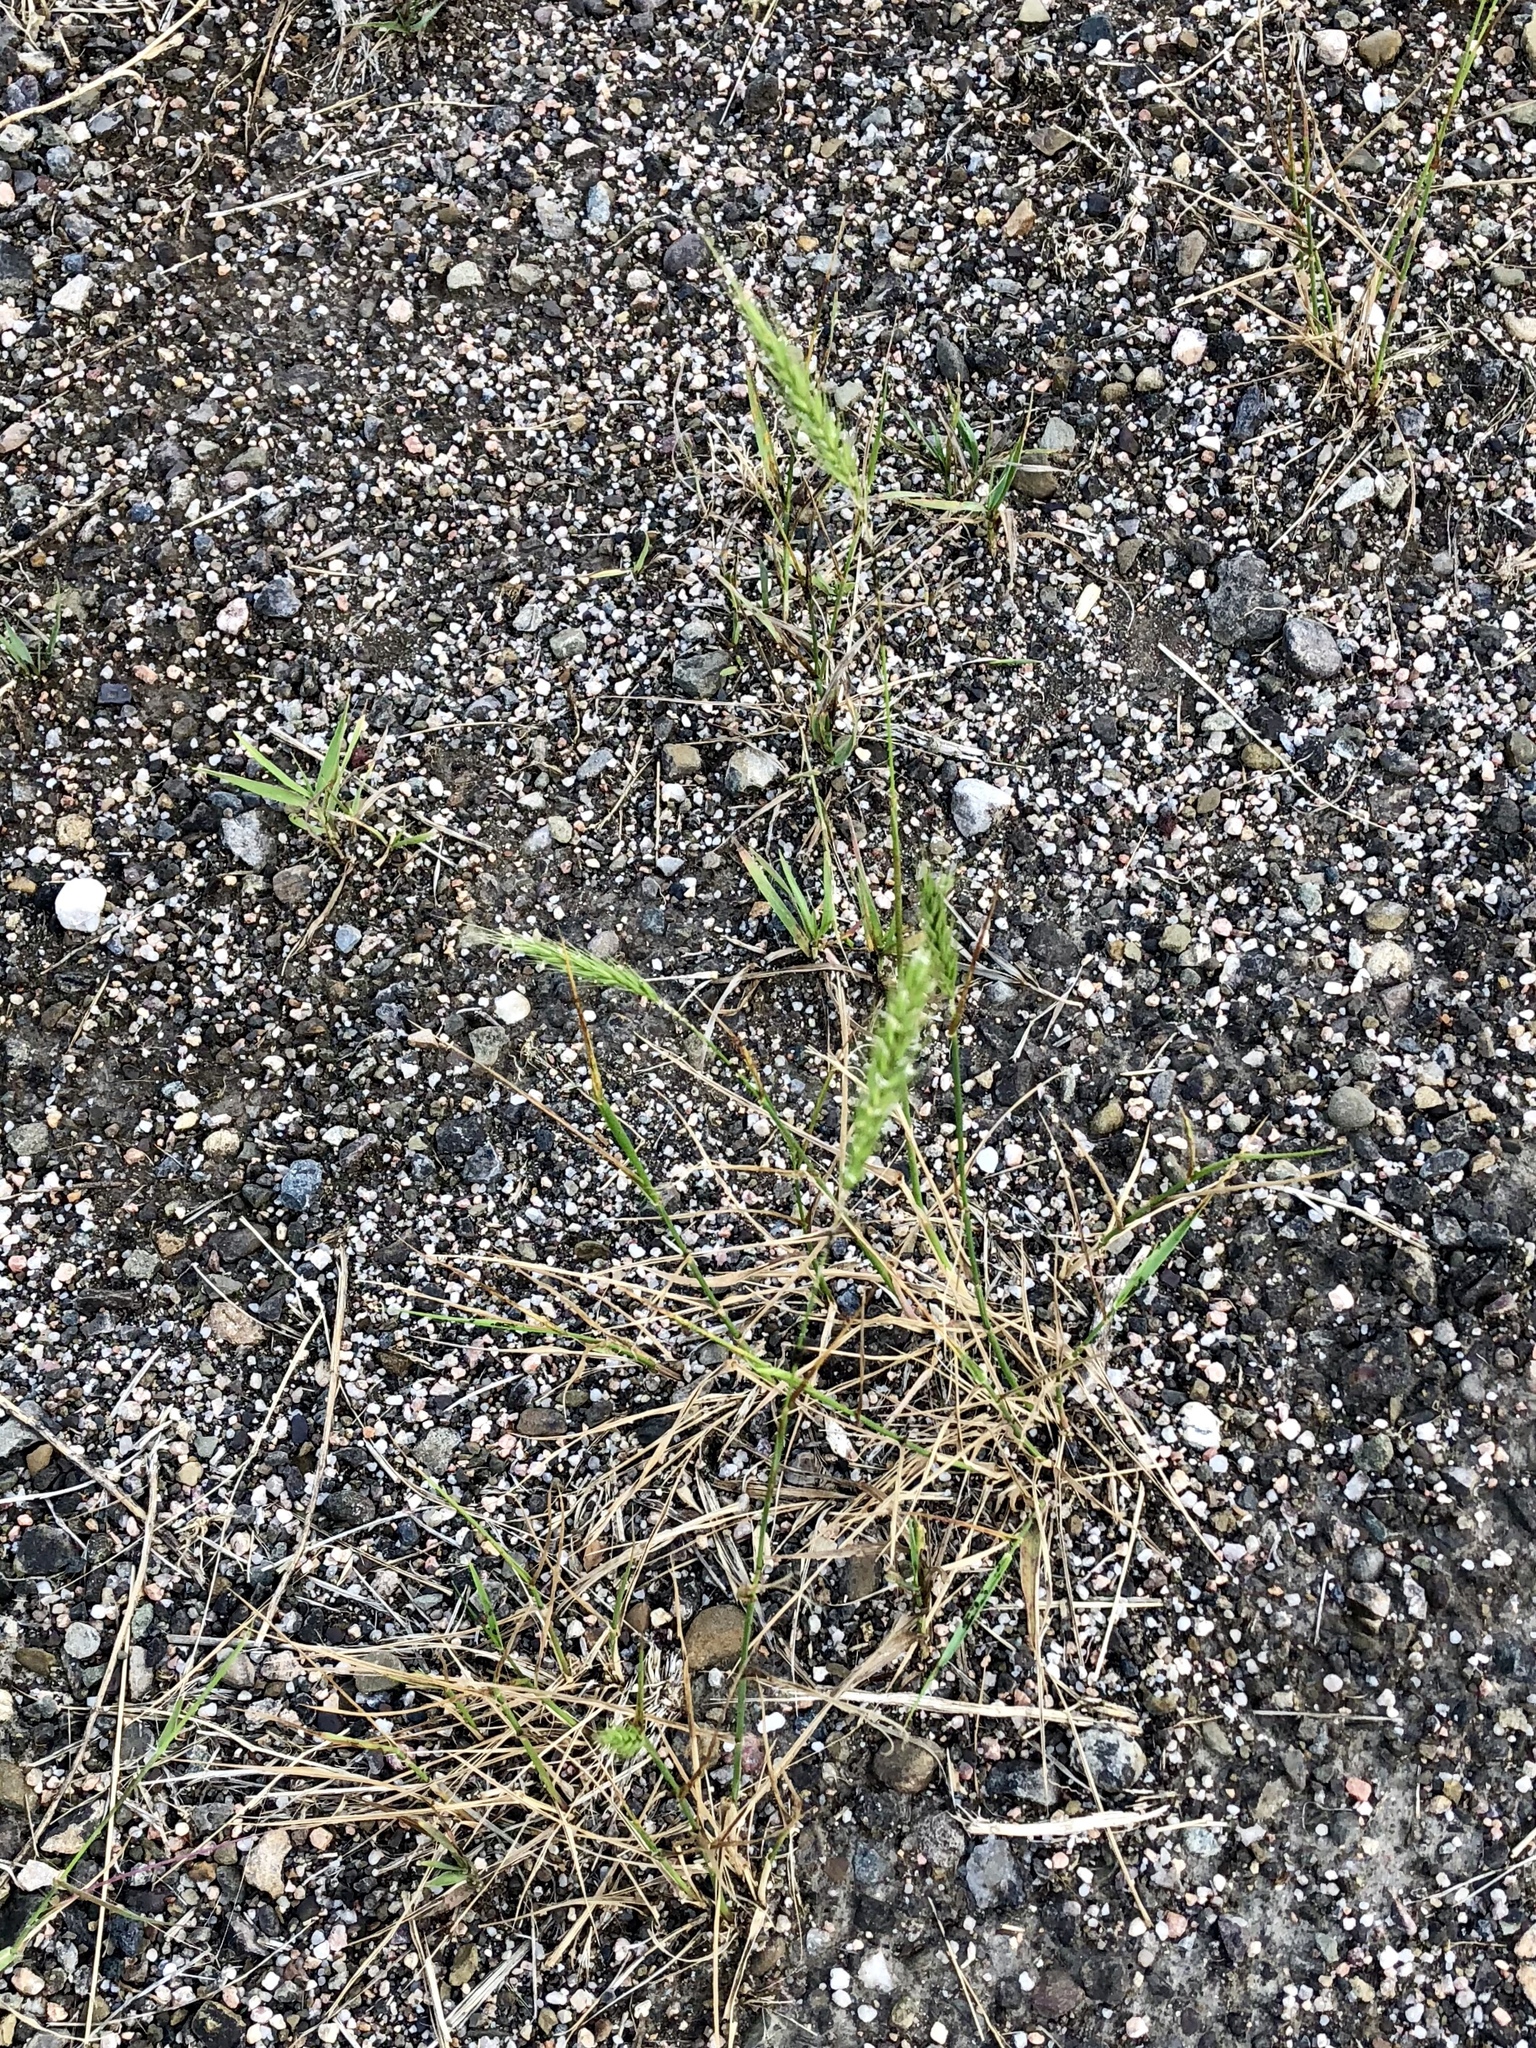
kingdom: Plantae
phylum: Tracheophyta
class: Liliopsida
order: Poales
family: Poaceae
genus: Elymus
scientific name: Elymus virginicus
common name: Common eastern wildrye
